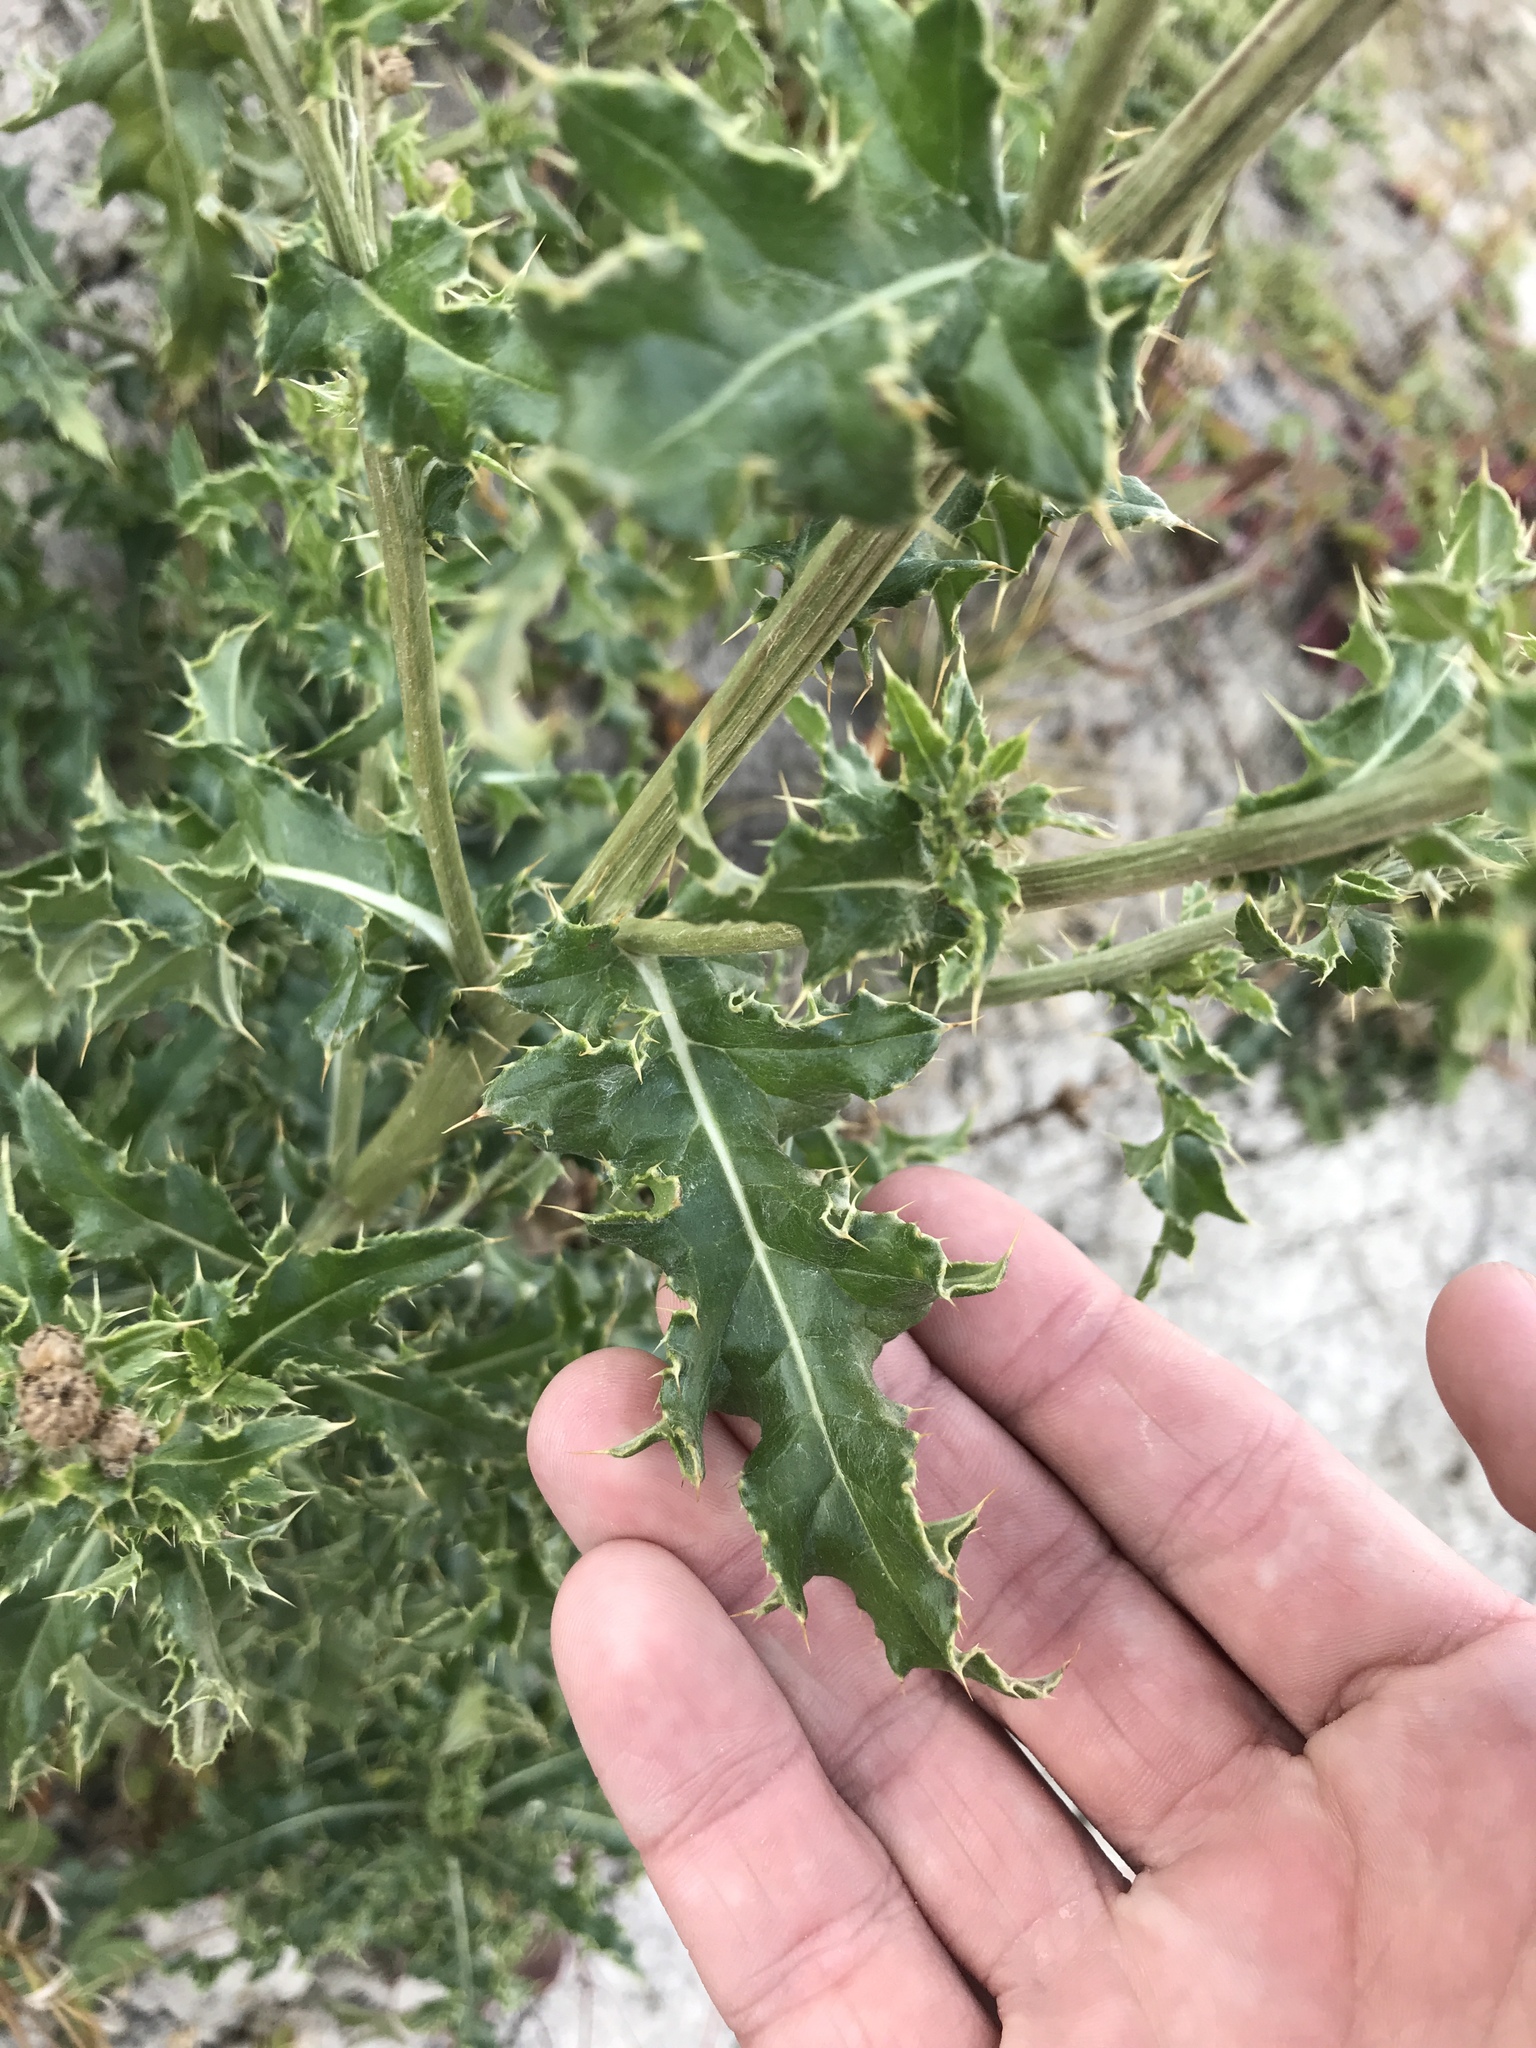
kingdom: Plantae
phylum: Tracheophyta
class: Magnoliopsida
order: Asterales
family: Asteraceae
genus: Cirsium
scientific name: Cirsium arvense
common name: Creeping thistle
